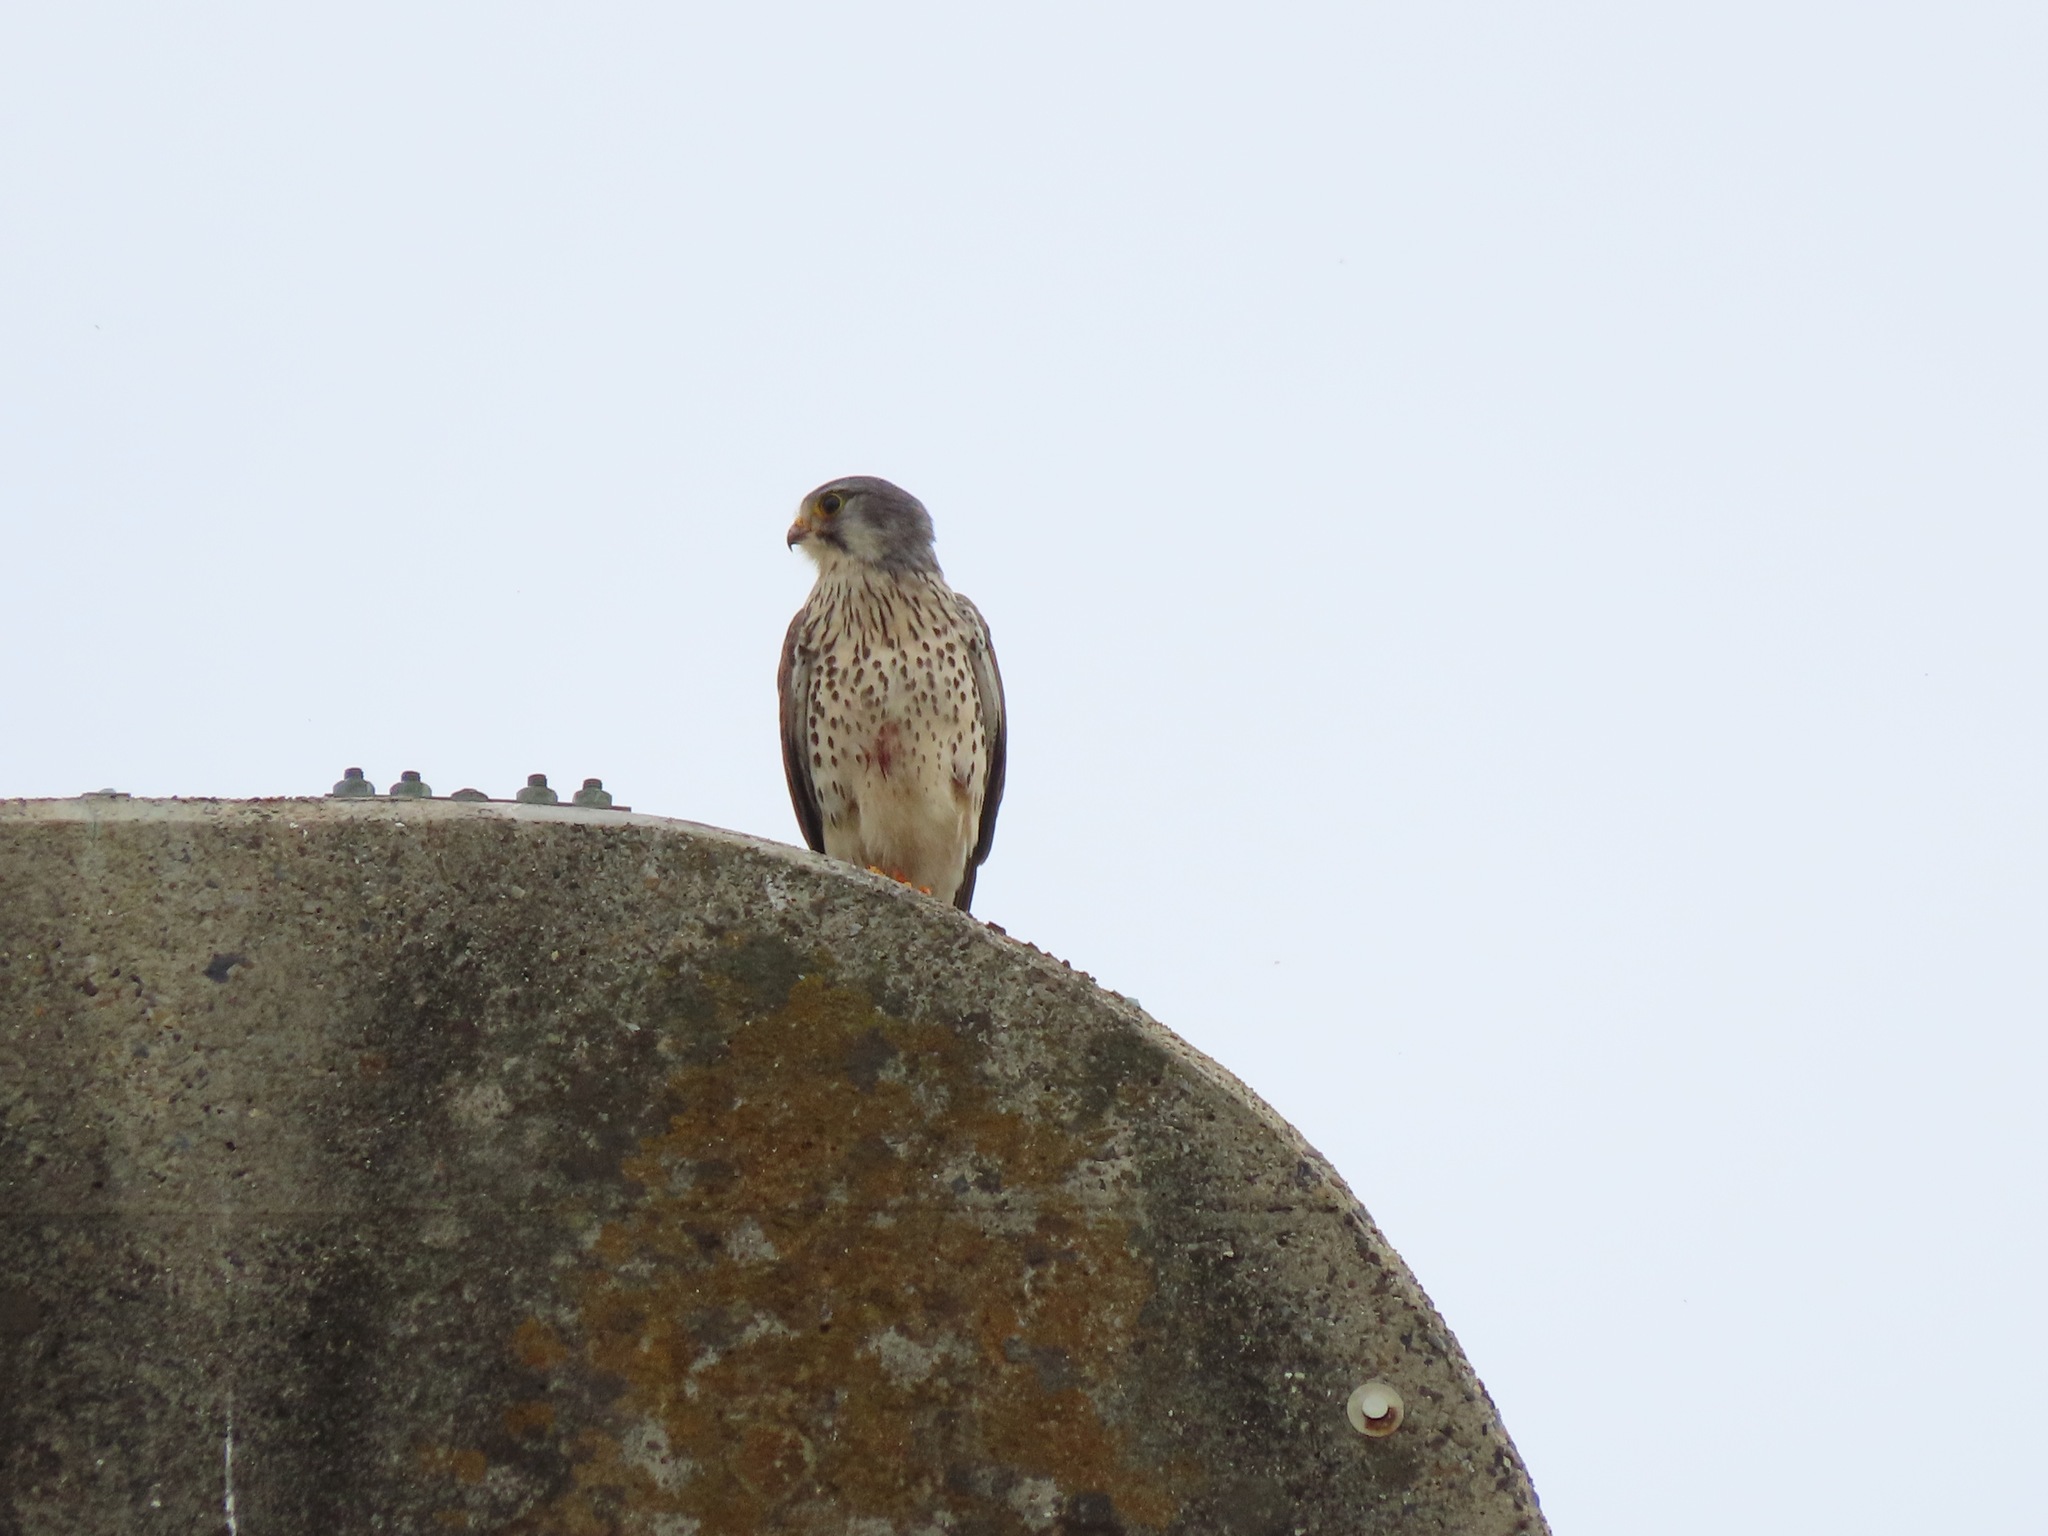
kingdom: Animalia
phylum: Chordata
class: Aves
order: Falconiformes
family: Falconidae
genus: Falco
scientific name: Falco tinnunculus
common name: Common kestrel
